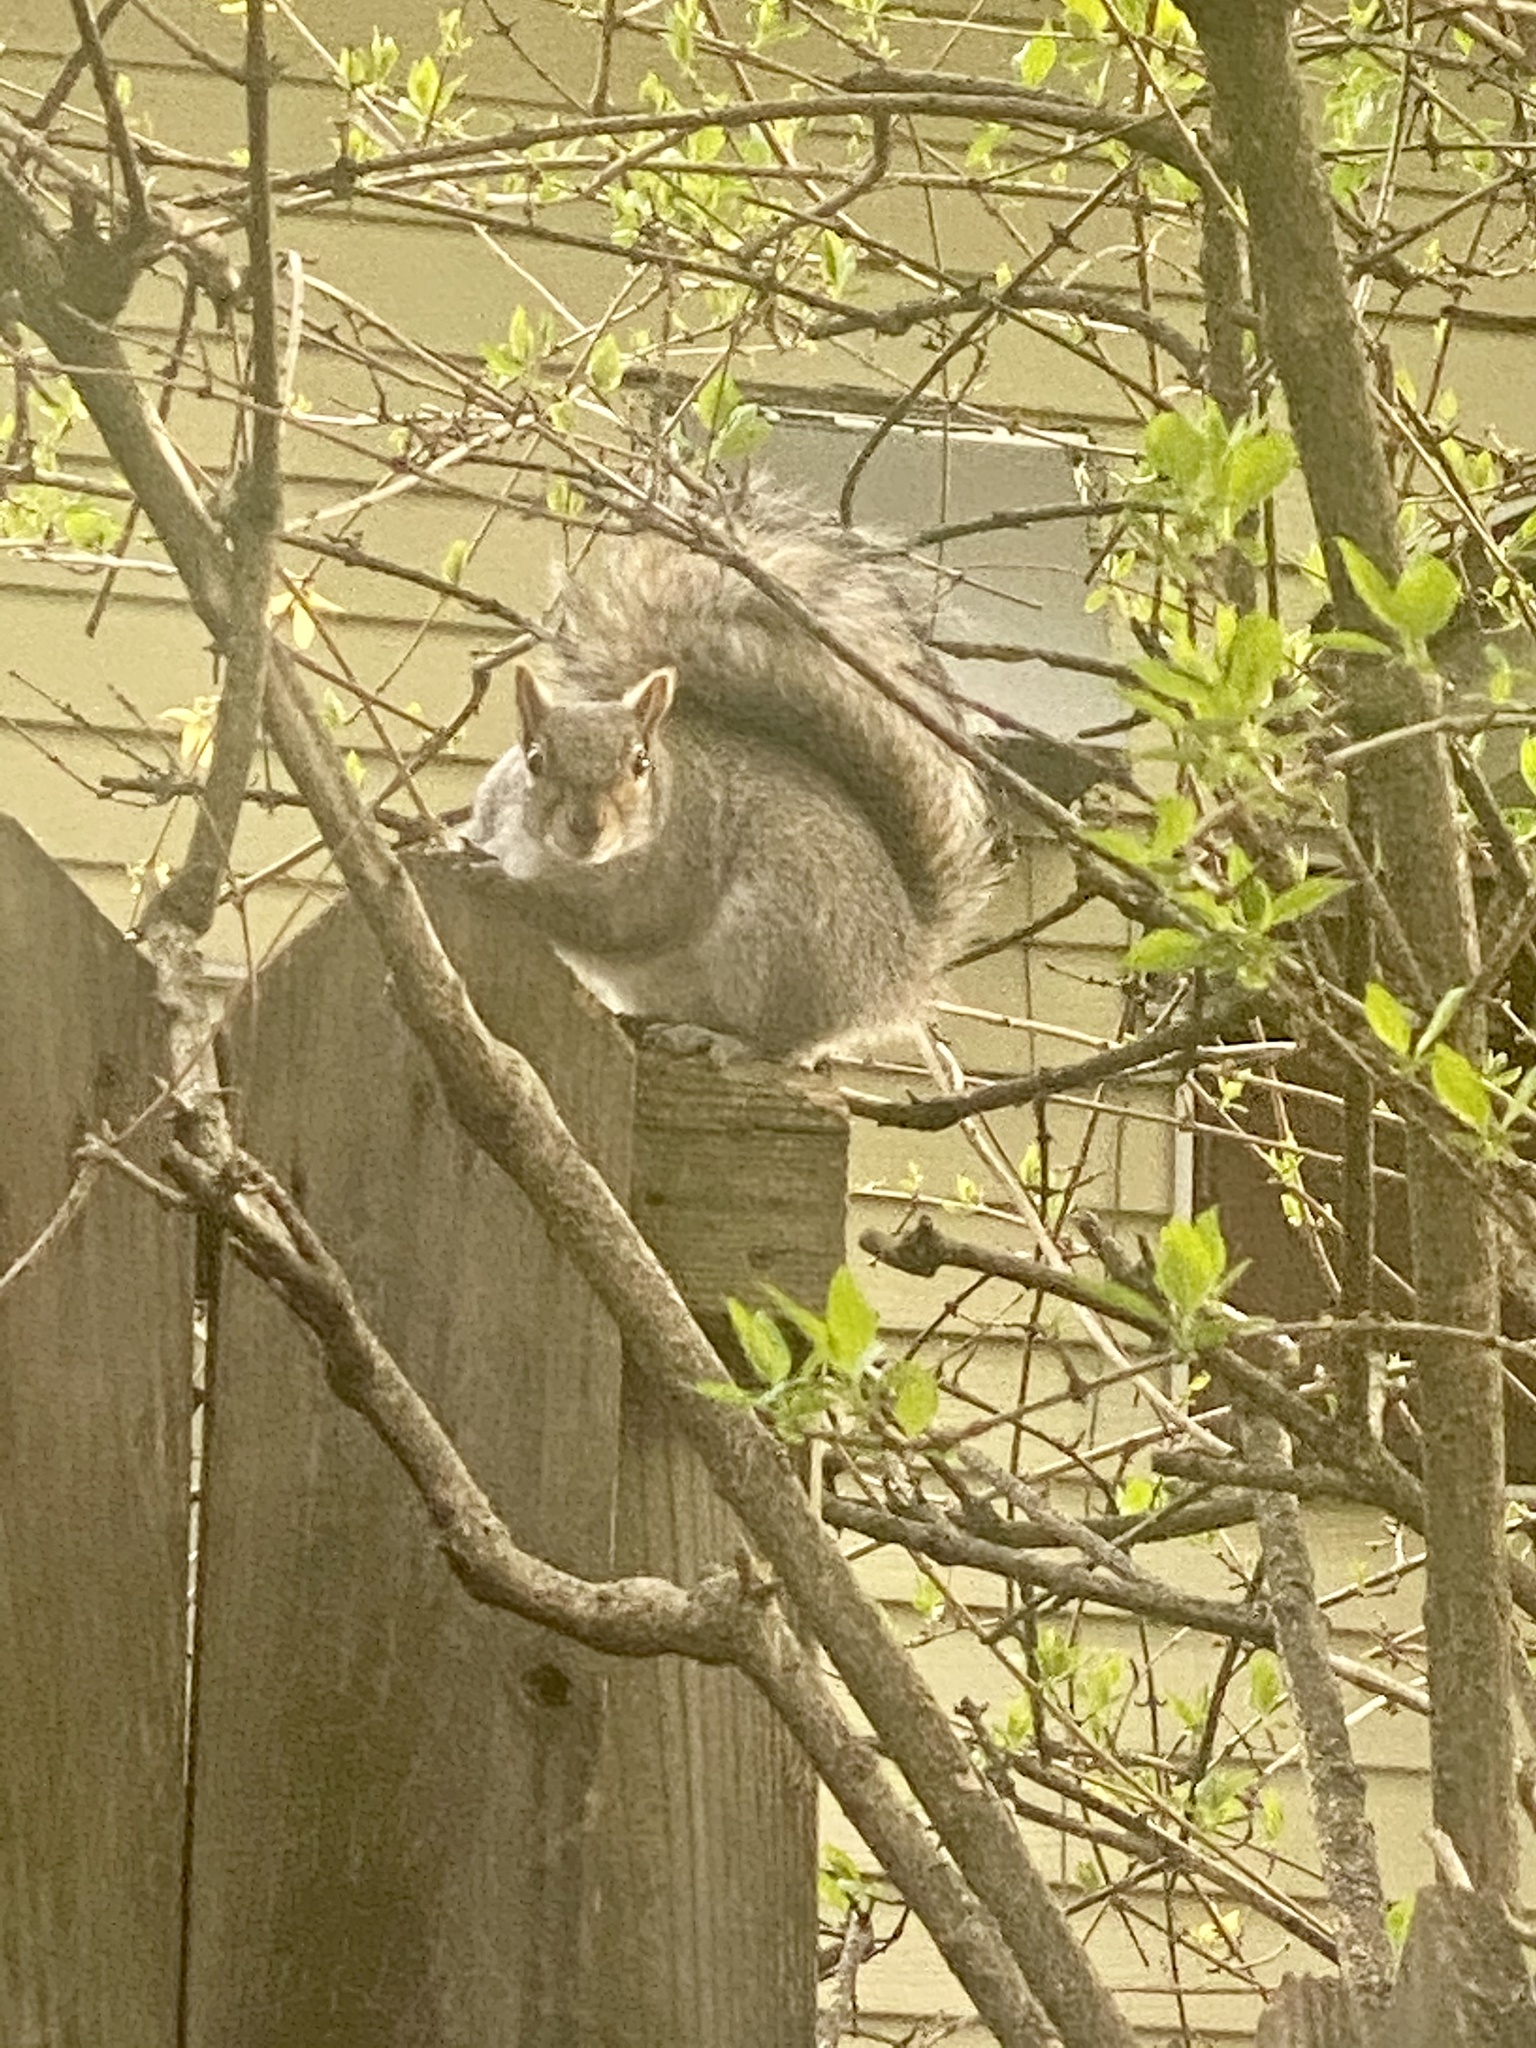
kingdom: Animalia
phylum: Chordata
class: Mammalia
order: Rodentia
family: Sciuridae
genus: Sciurus
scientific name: Sciurus carolinensis
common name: Eastern gray squirrel
